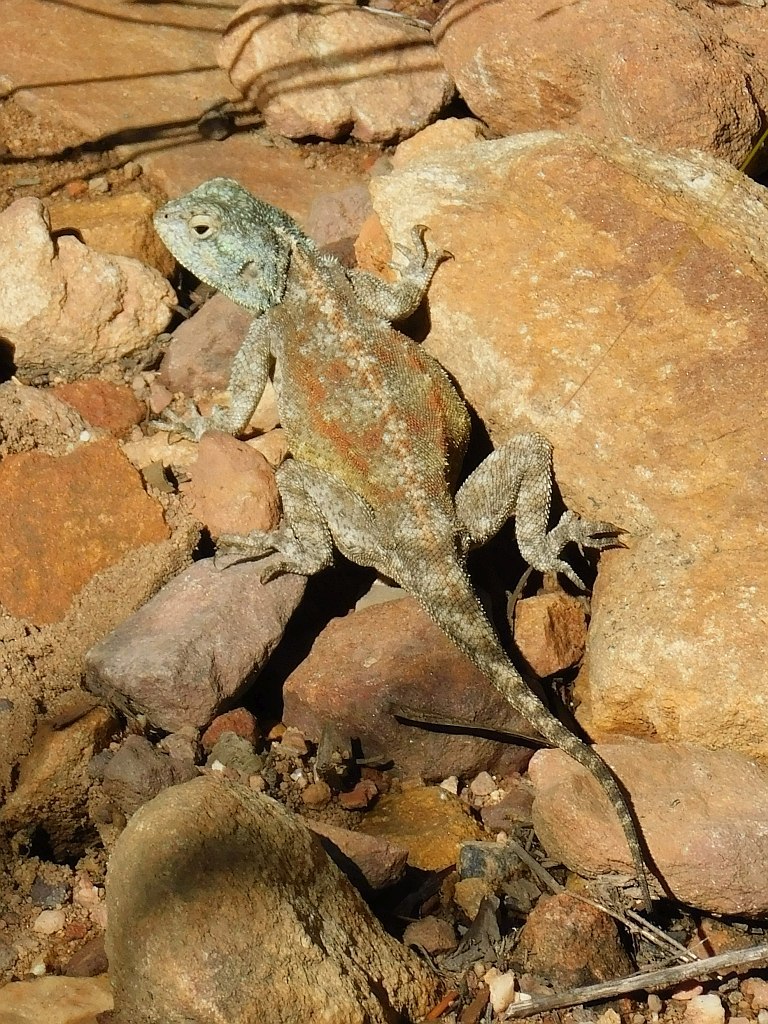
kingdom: Animalia
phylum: Chordata
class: Squamata
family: Agamidae
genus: Agama
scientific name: Agama atra
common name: Southern african rock agama
